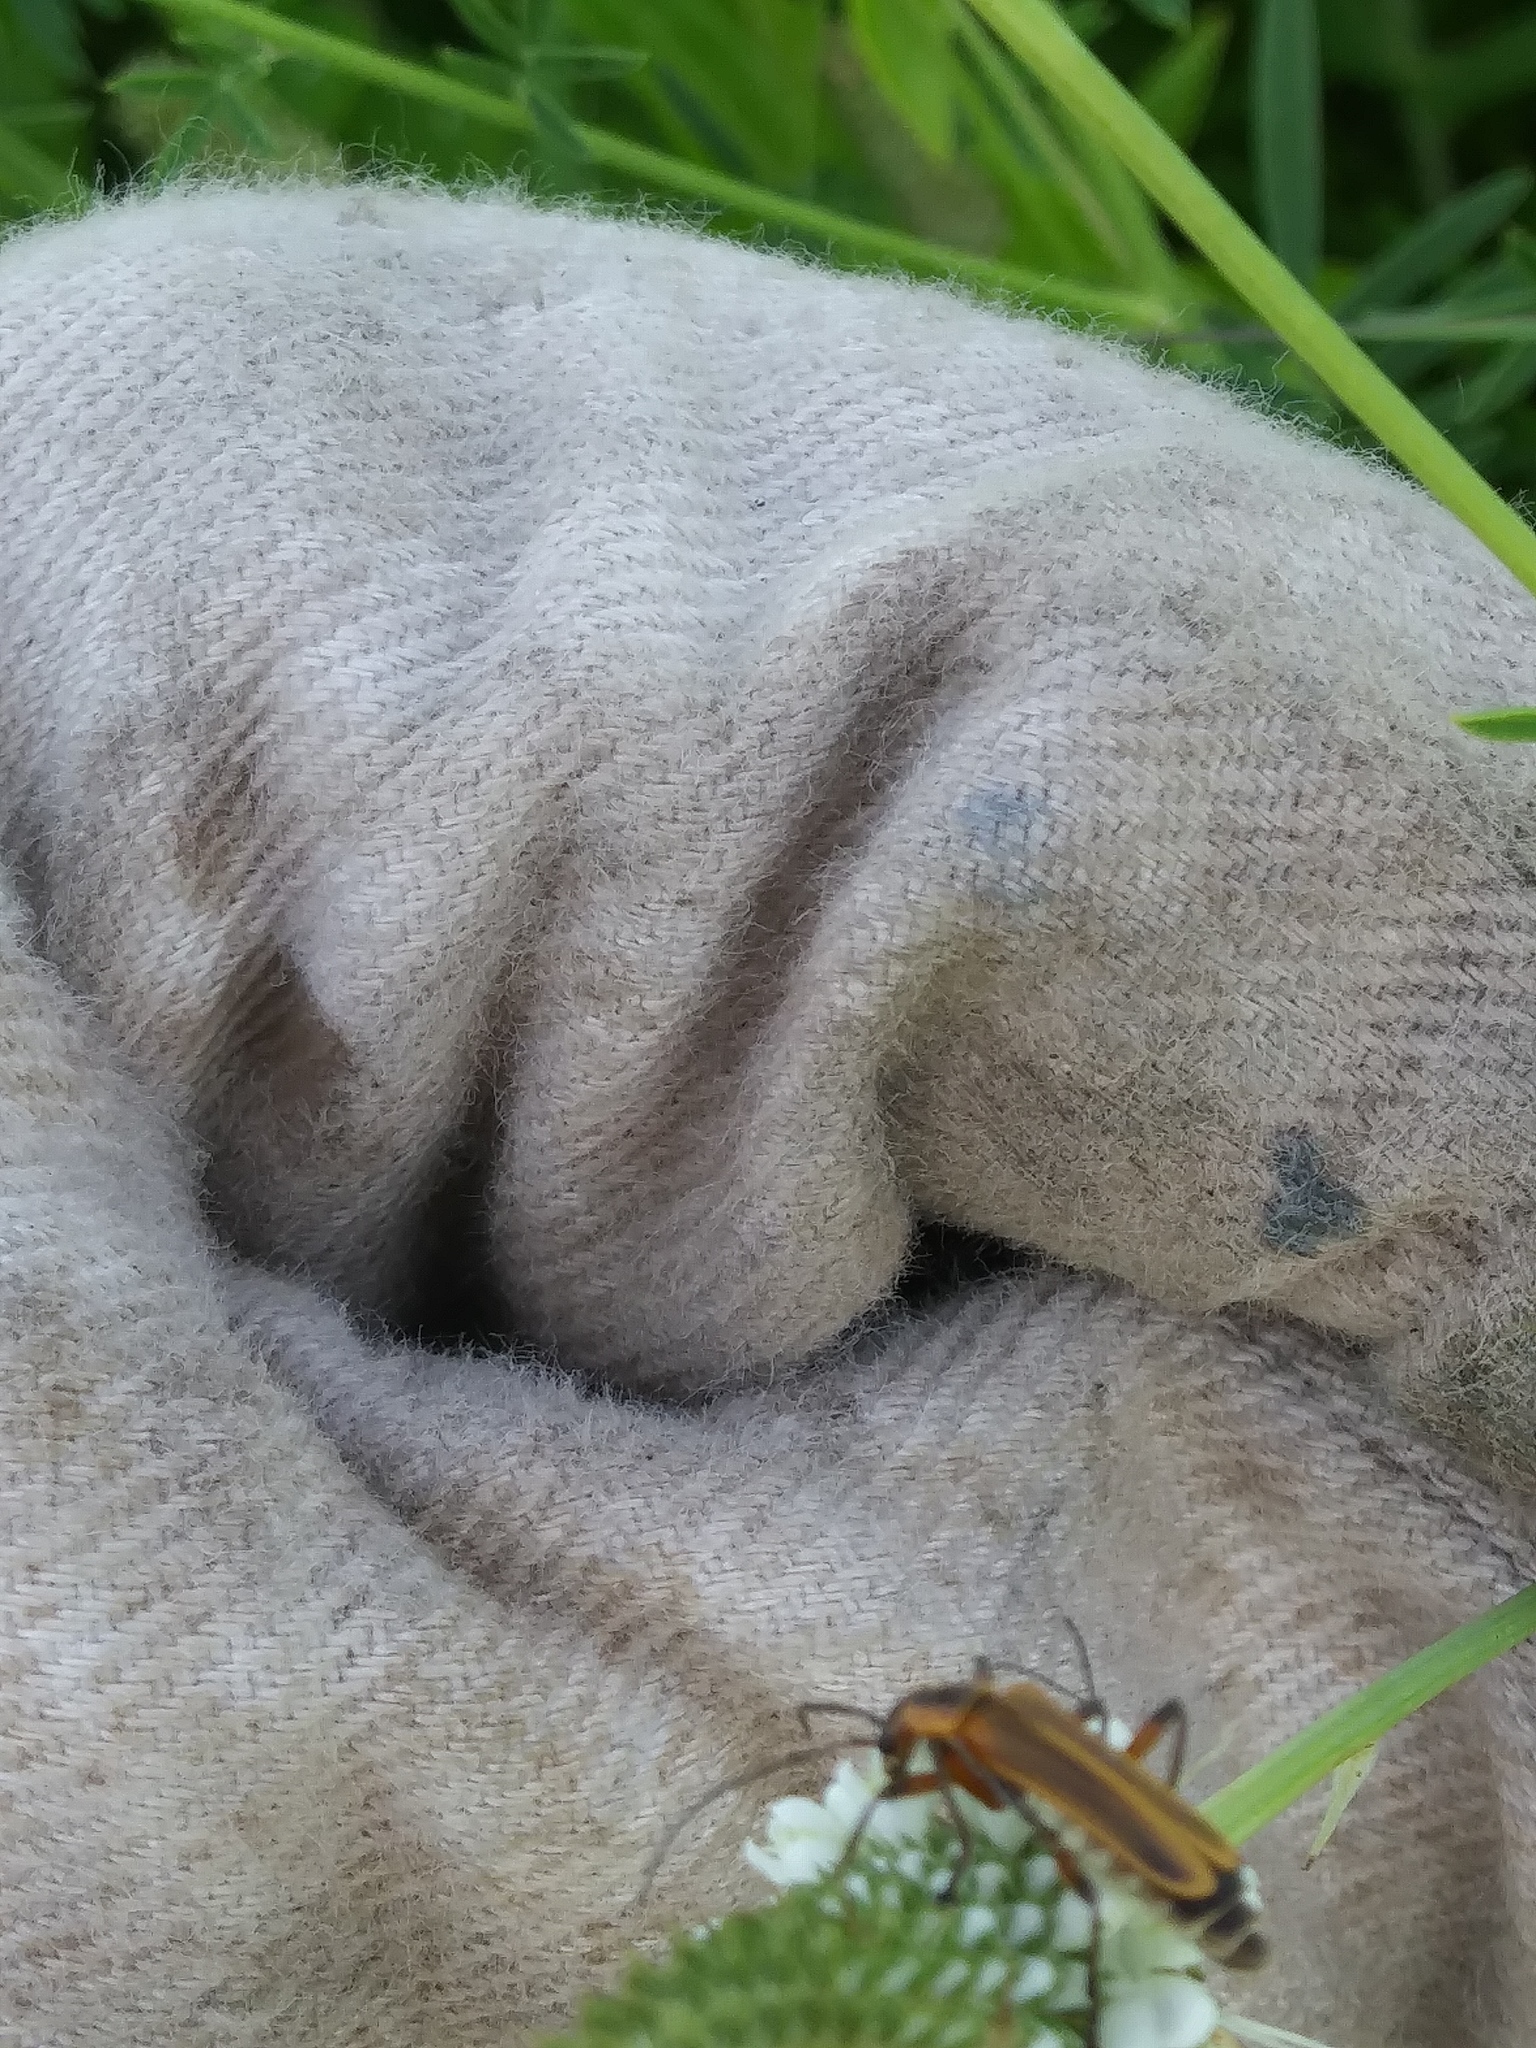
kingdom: Animalia
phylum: Arthropoda
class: Insecta
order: Coleoptera
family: Cantharidae
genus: Chauliognathus
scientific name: Chauliognathus marginatus
